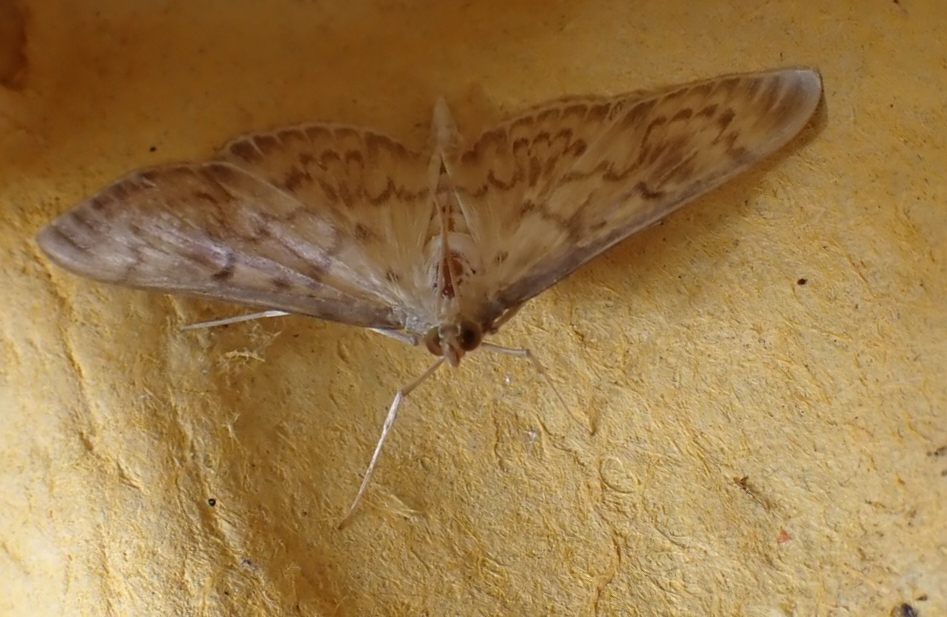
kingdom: Animalia
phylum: Arthropoda
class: Insecta
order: Lepidoptera
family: Crambidae
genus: Patania
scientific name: Patania ruralis
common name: Mother of pearl
